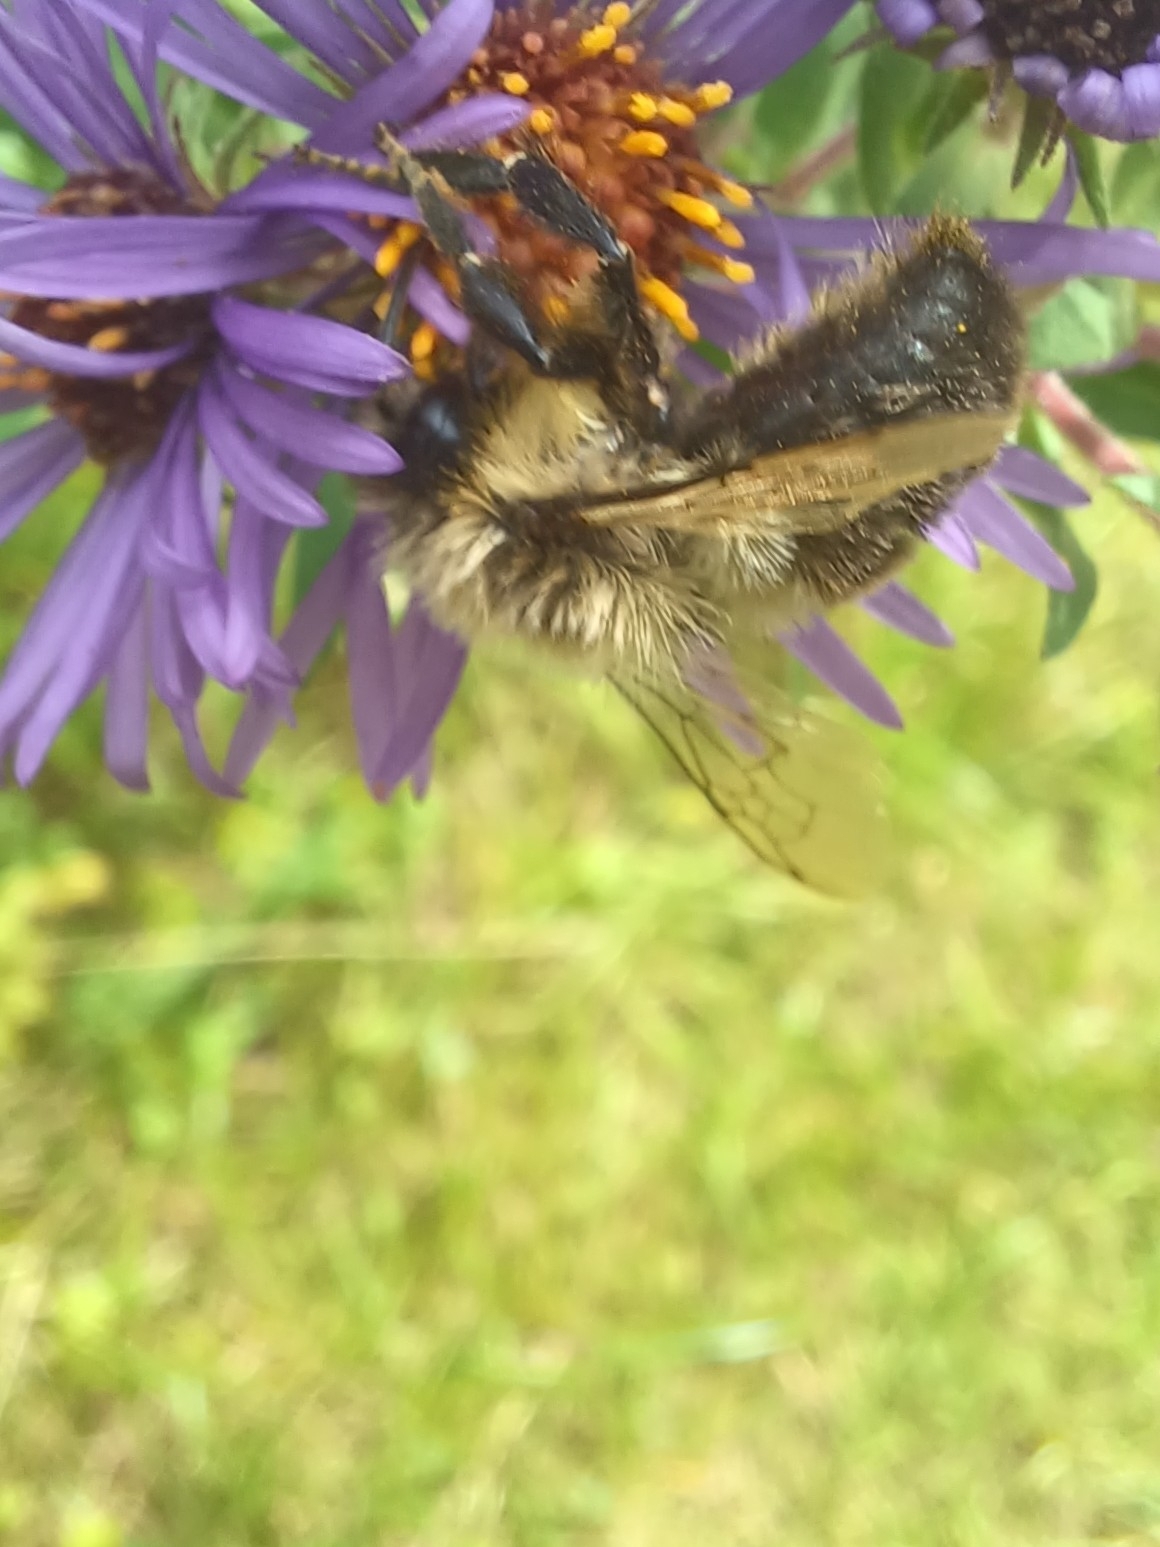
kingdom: Animalia
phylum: Arthropoda
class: Insecta
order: Hymenoptera
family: Apidae
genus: Bombus
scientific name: Bombus impatiens
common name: Common eastern bumble bee
